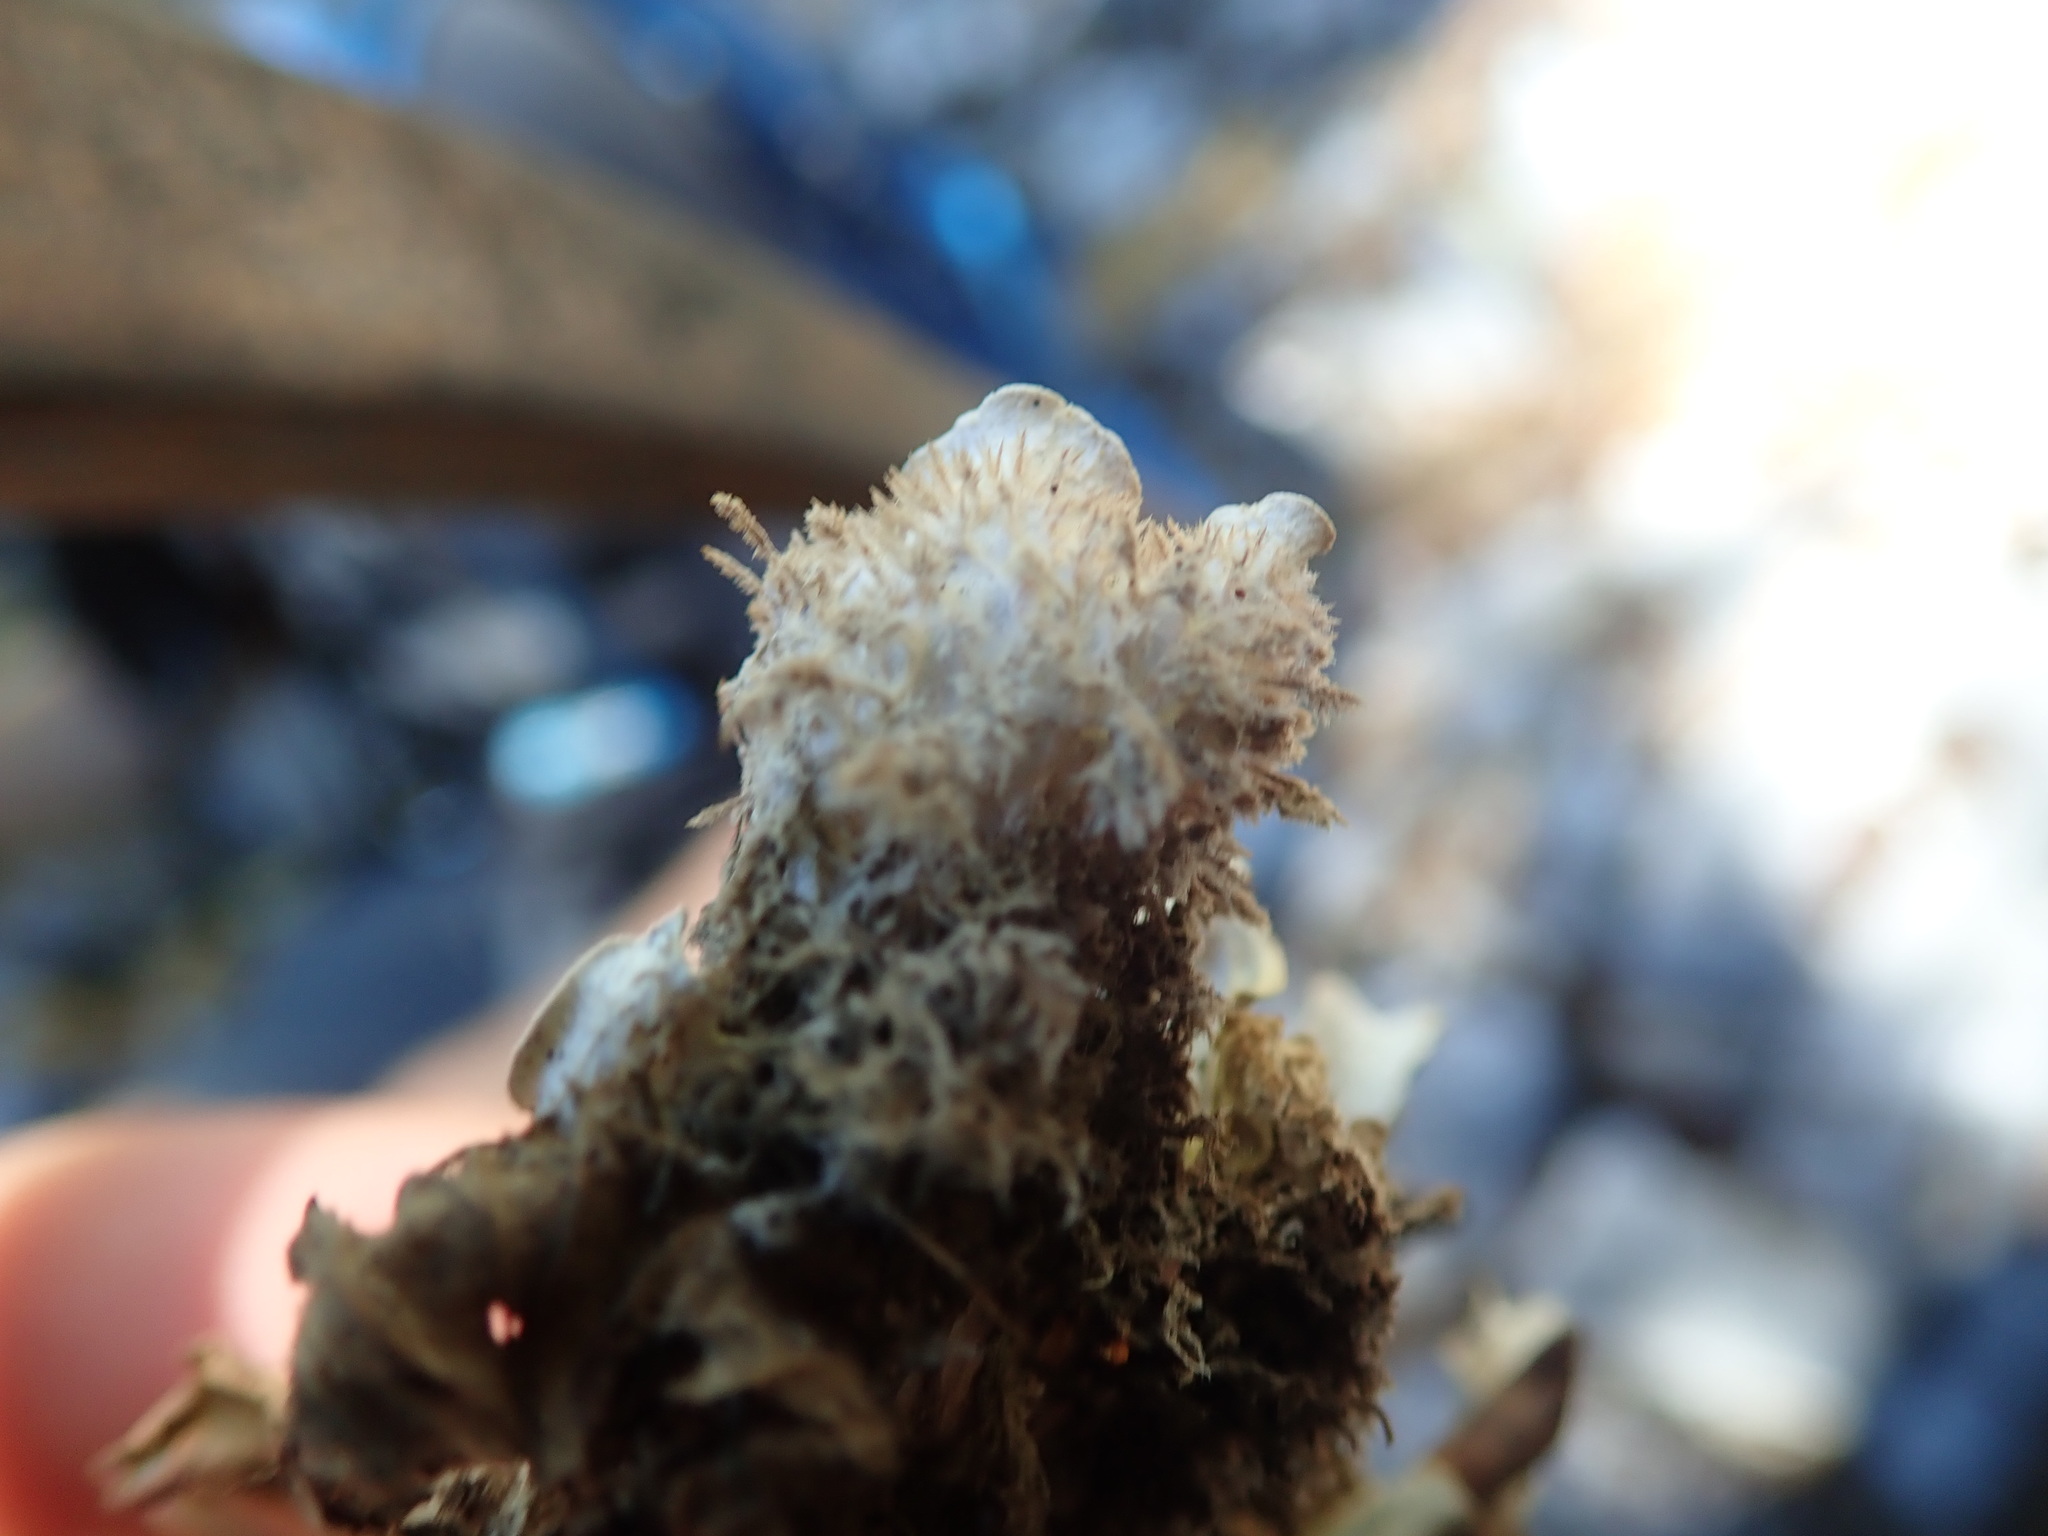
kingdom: Fungi
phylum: Ascomycota
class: Lecanoromycetes
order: Peltigerales
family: Peltigeraceae
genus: Peltigera
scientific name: Peltigera canina
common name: Dog pelt lichen
